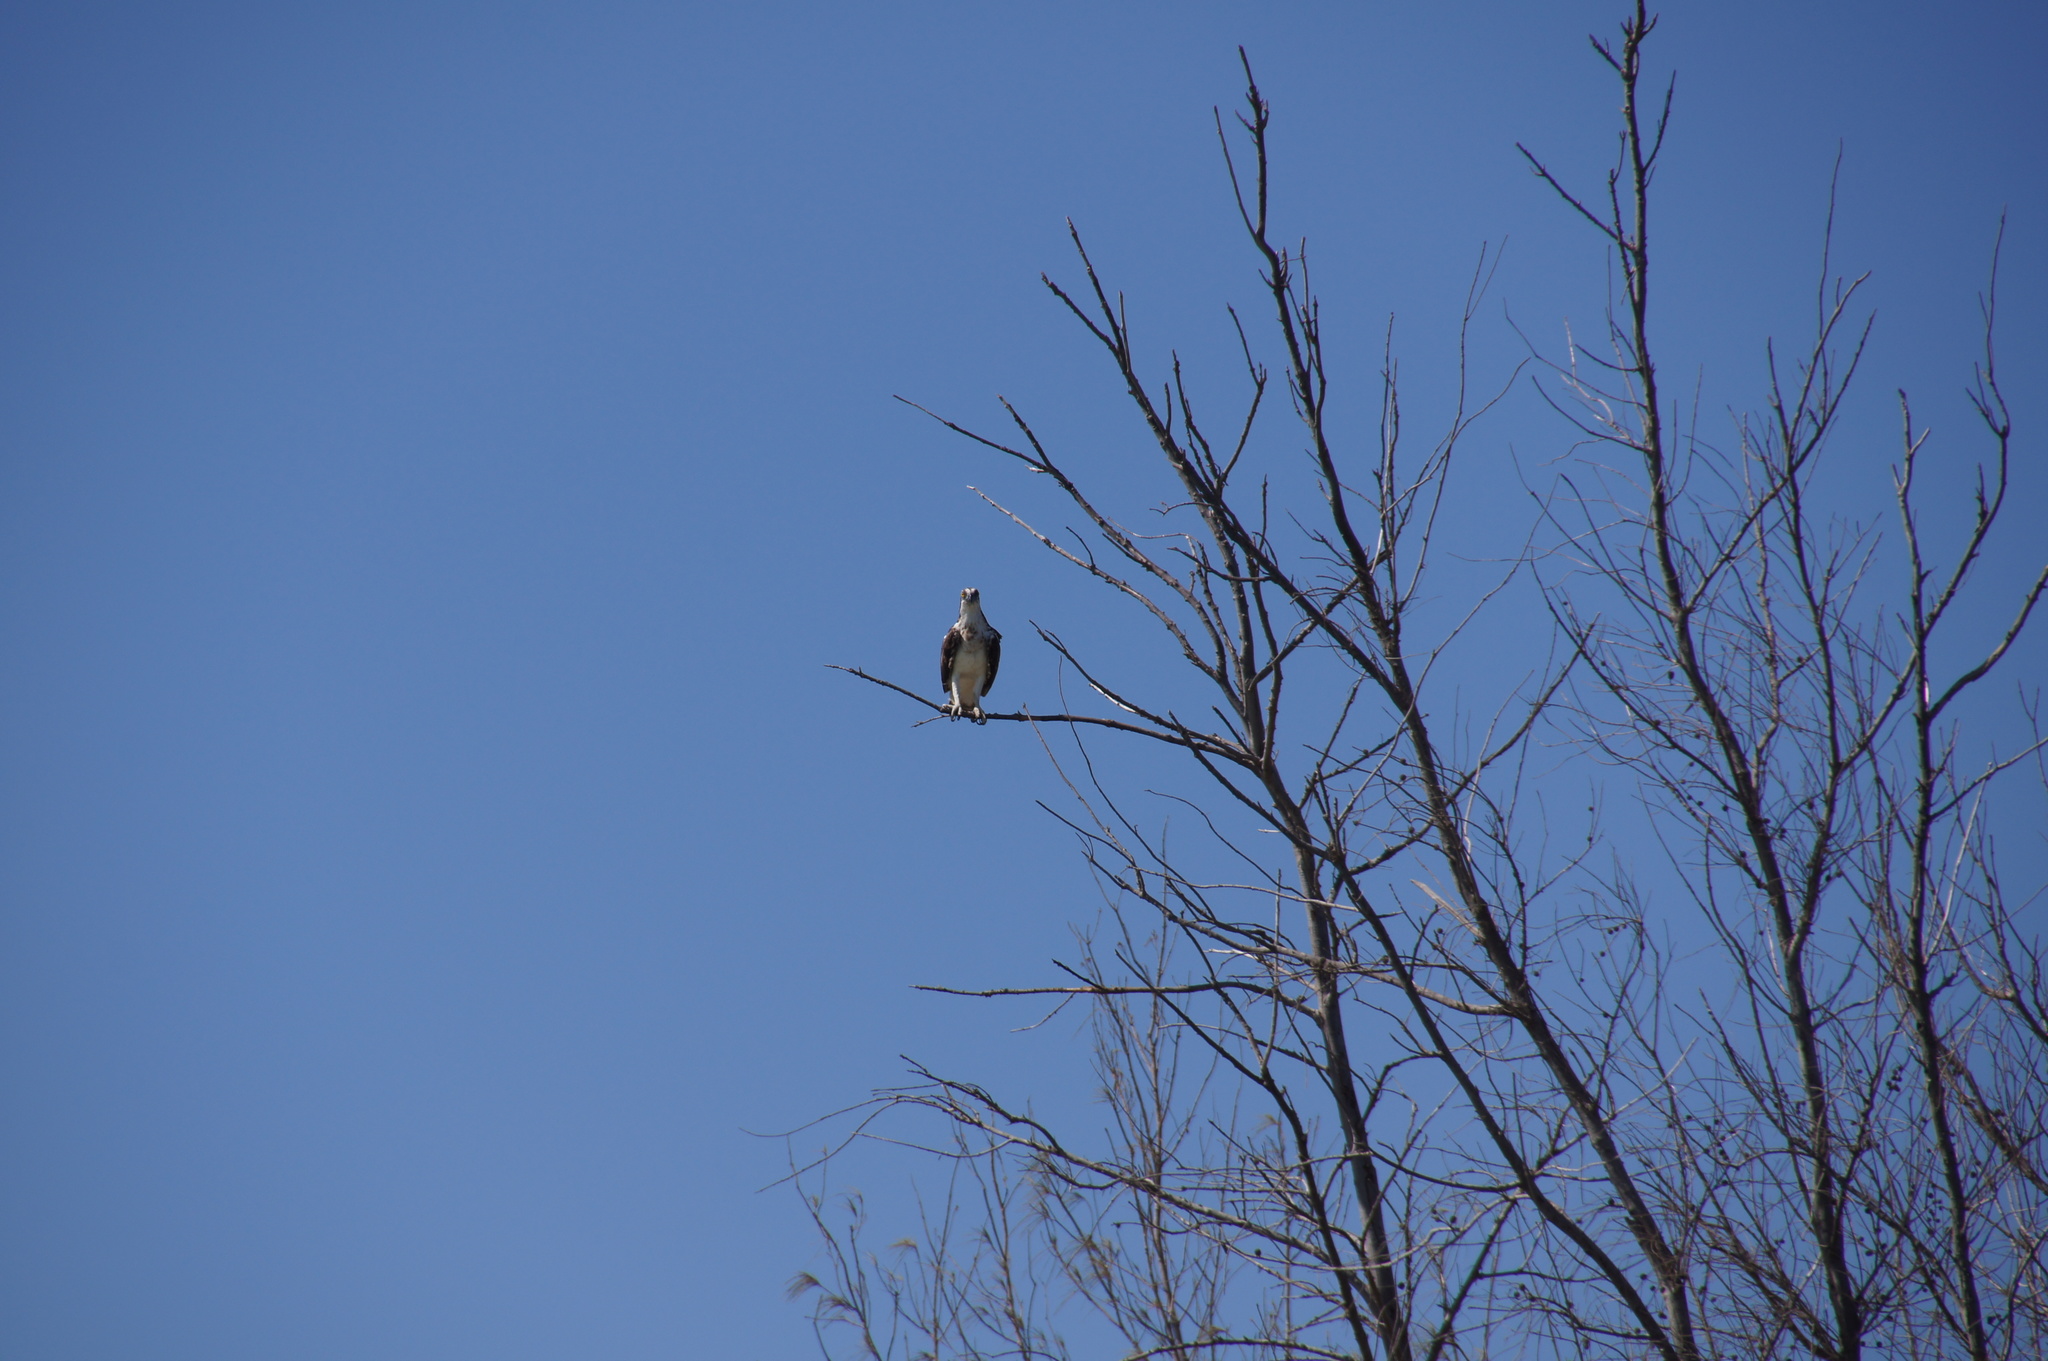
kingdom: Animalia
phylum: Chordata
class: Aves
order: Accipitriformes
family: Pandionidae
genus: Pandion
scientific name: Pandion haliaetus
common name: Osprey
